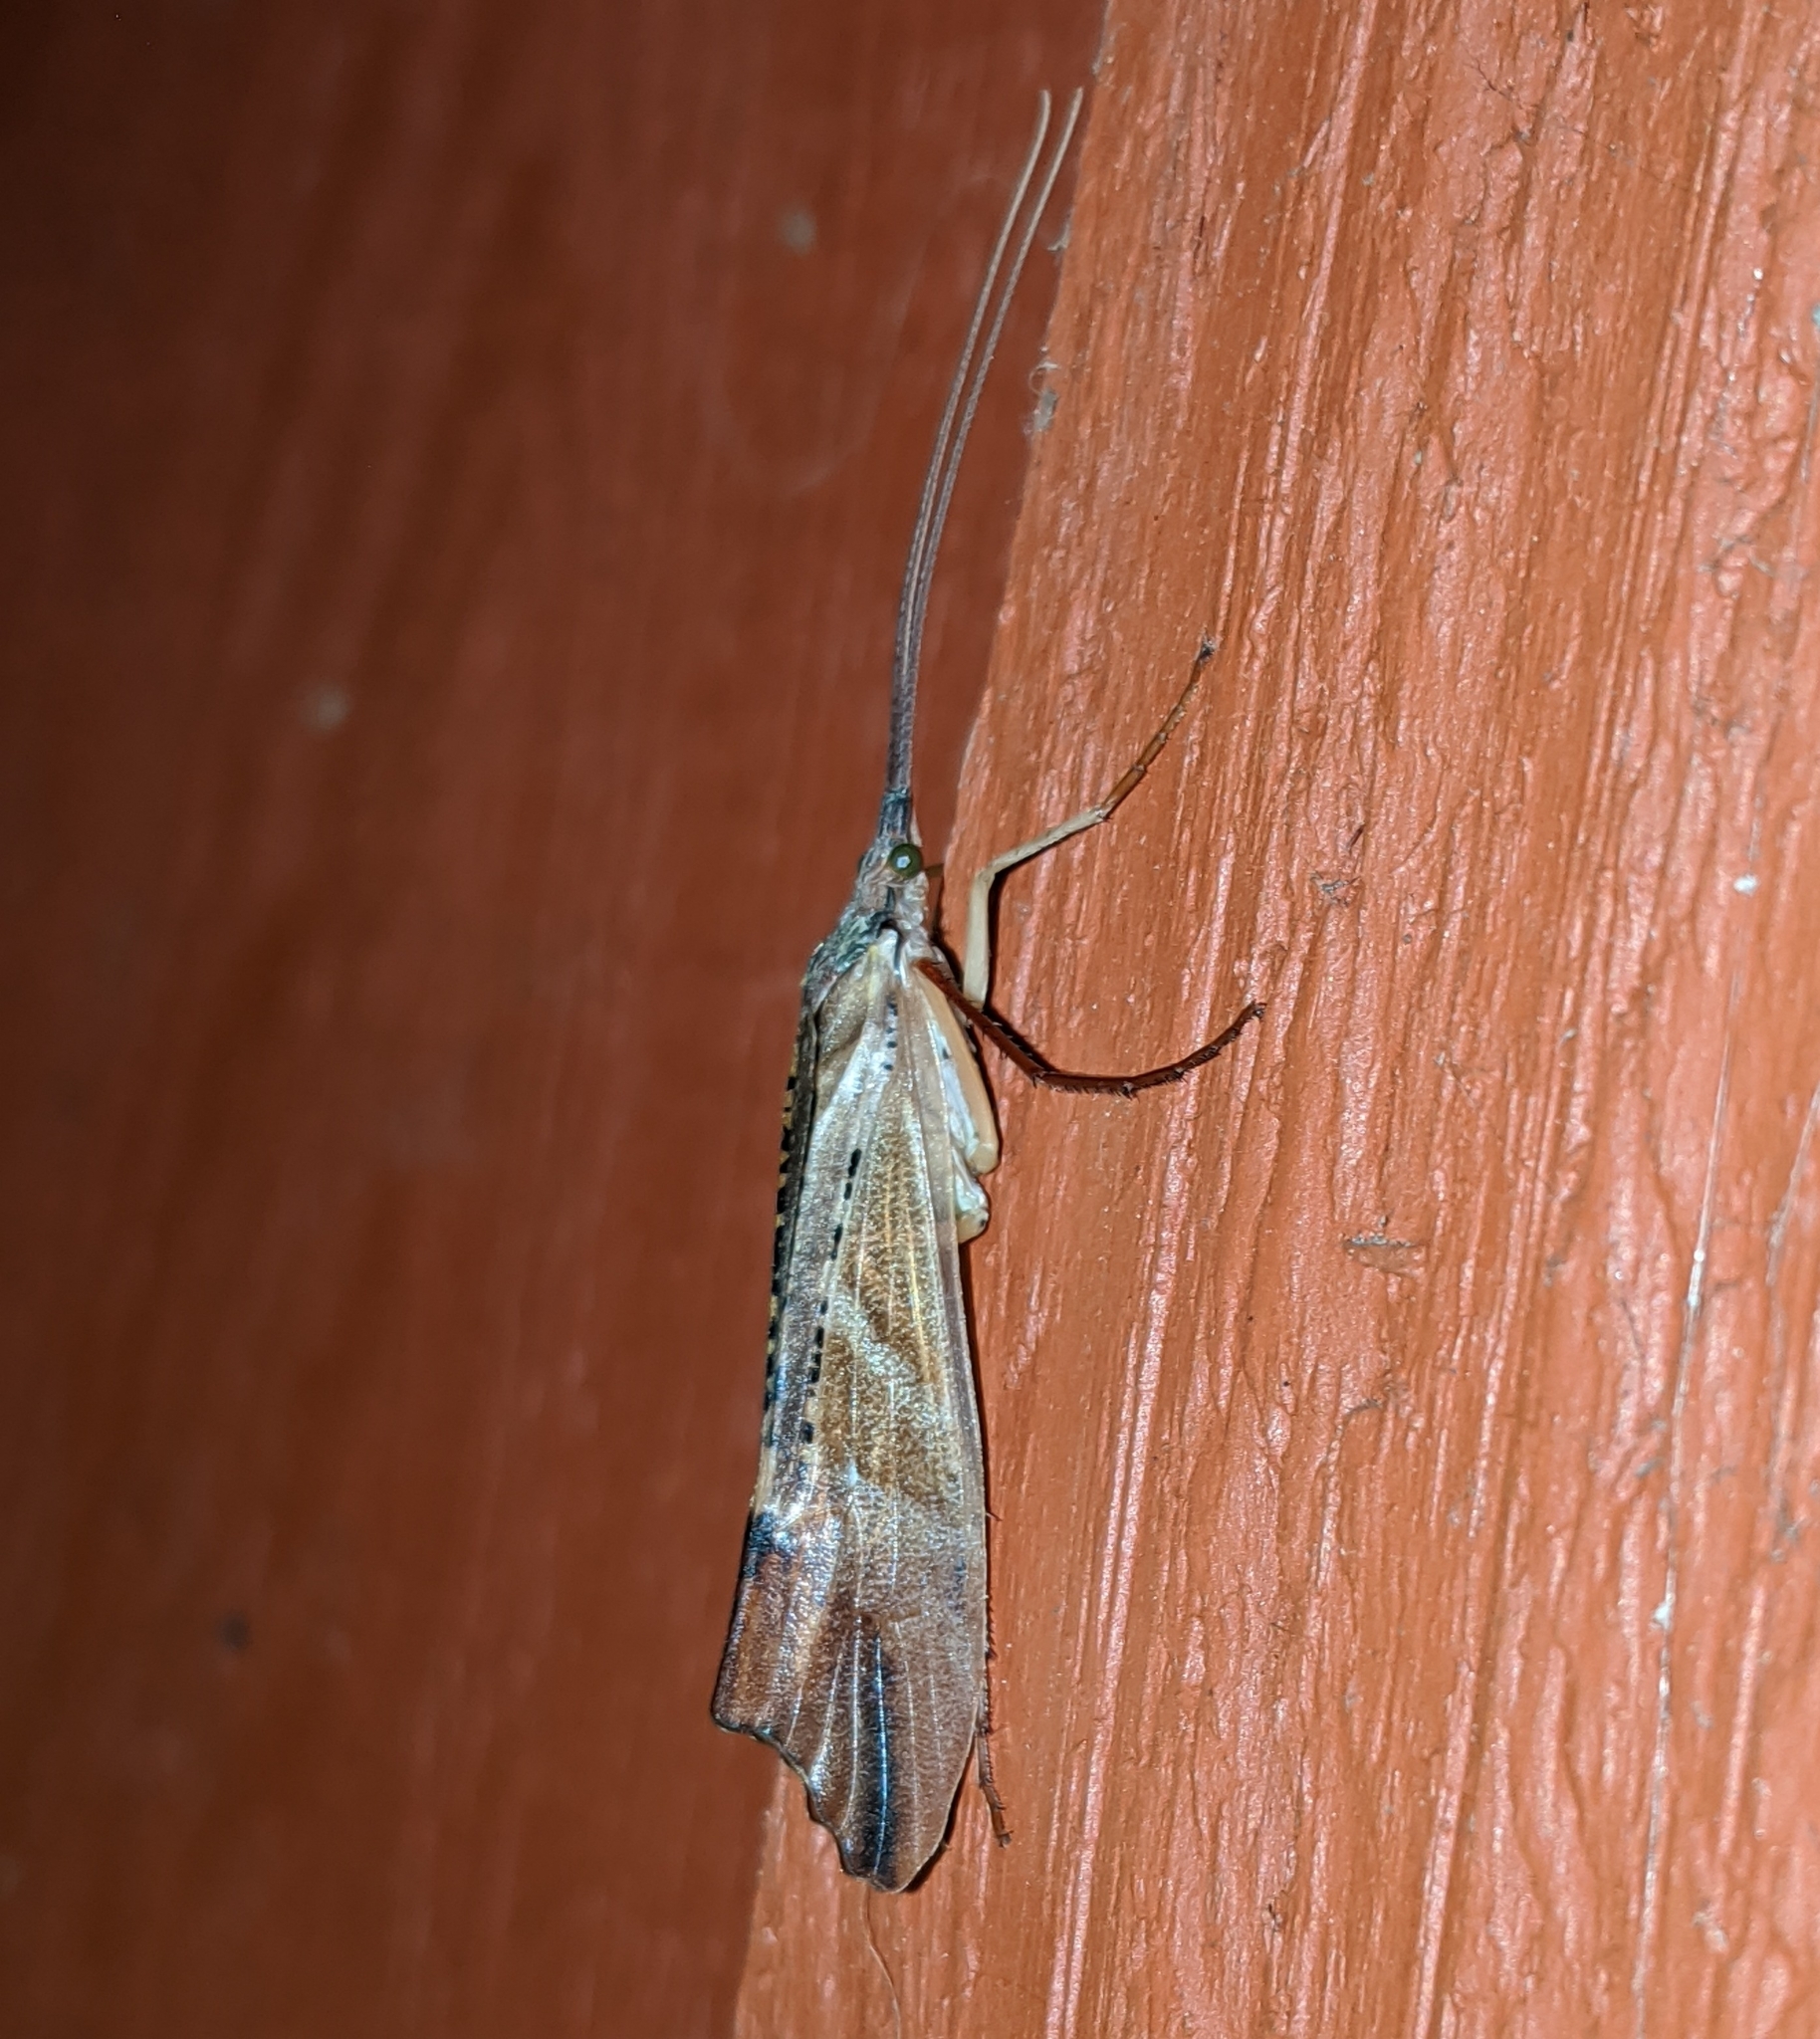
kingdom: Animalia
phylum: Arthropoda
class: Insecta
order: Trichoptera
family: Limnephilidae
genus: Nemotaulius
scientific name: Nemotaulius hostilis
